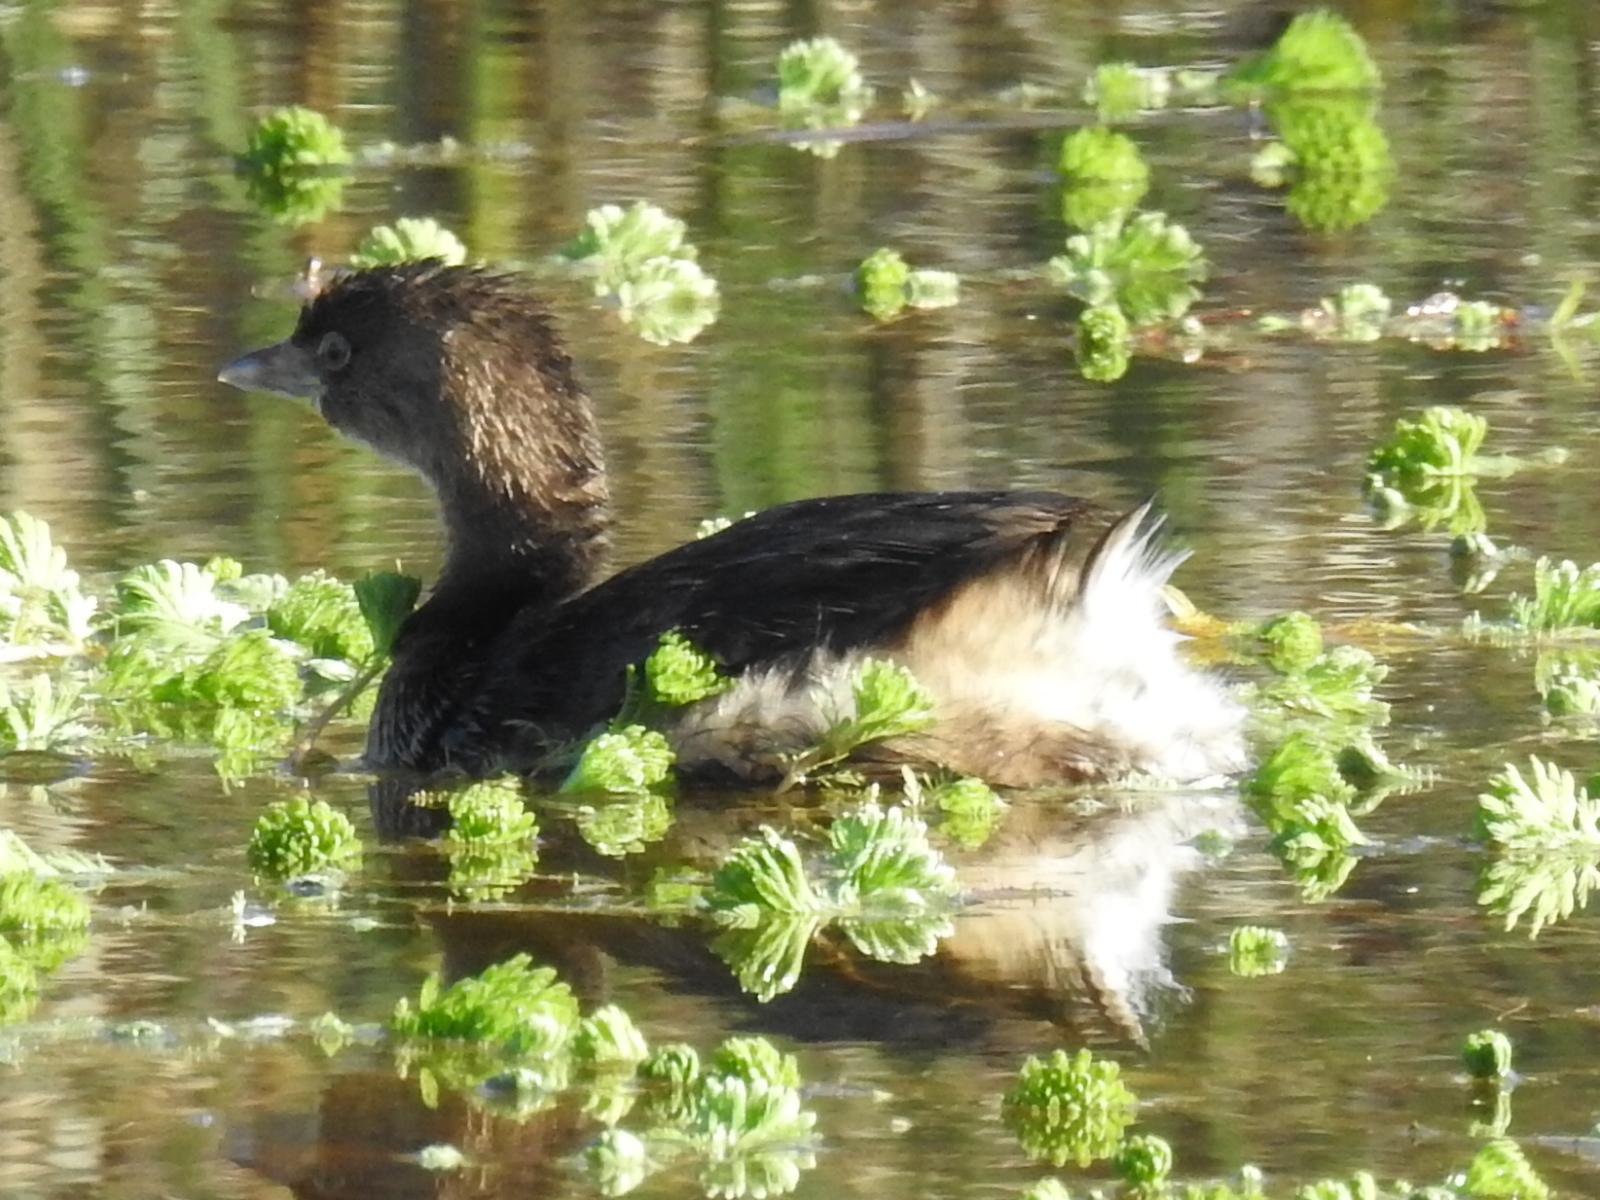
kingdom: Animalia
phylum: Chordata
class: Aves
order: Podicipediformes
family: Podicipedidae
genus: Podilymbus
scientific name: Podilymbus podiceps
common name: Pied-billed grebe
